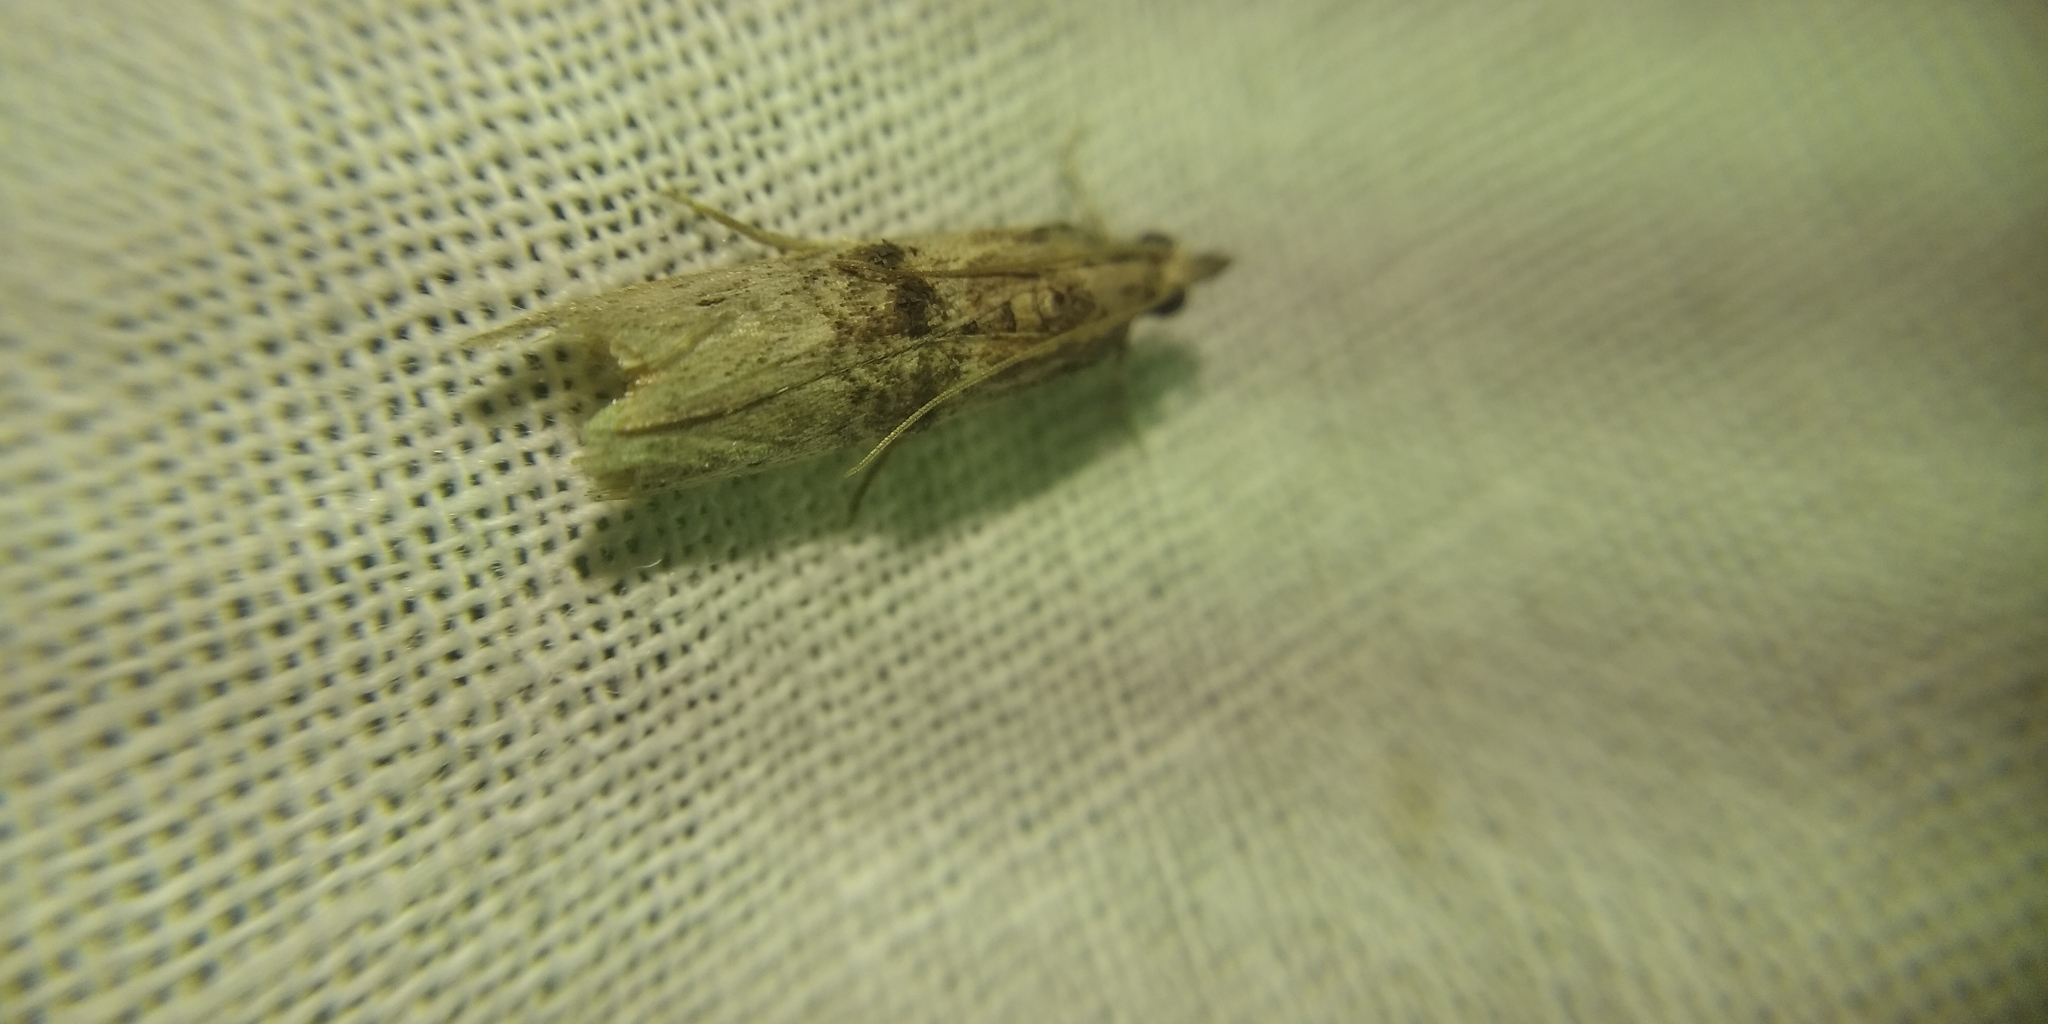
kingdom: Animalia
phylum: Arthropoda
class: Insecta
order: Lepidoptera
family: Pyralidae
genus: Nephopterix
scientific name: Nephopterix angustella
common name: Spindle knot-horn
